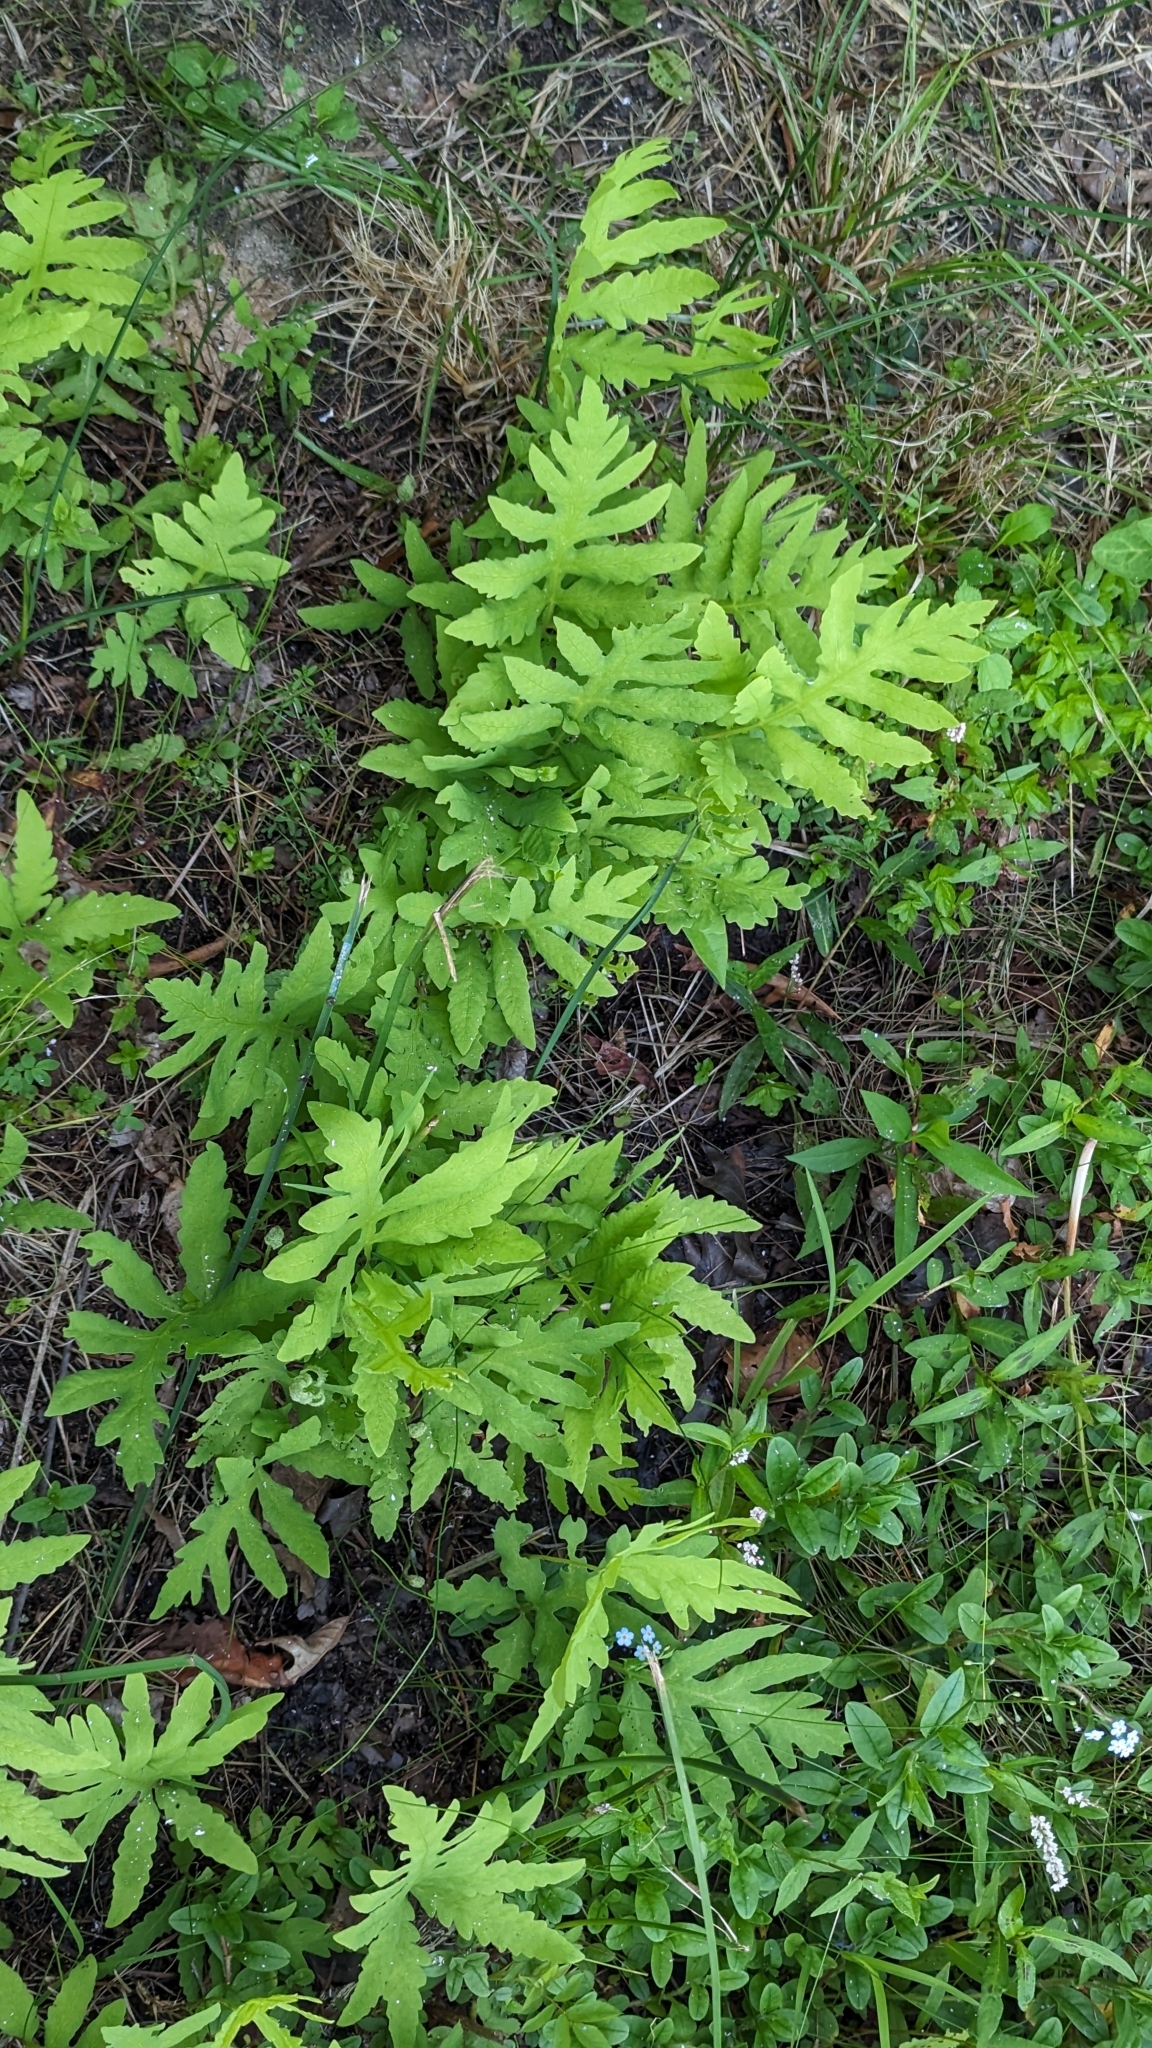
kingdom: Plantae
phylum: Tracheophyta
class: Polypodiopsida
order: Polypodiales
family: Onocleaceae
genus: Onoclea
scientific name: Onoclea sensibilis
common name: Sensitive fern
